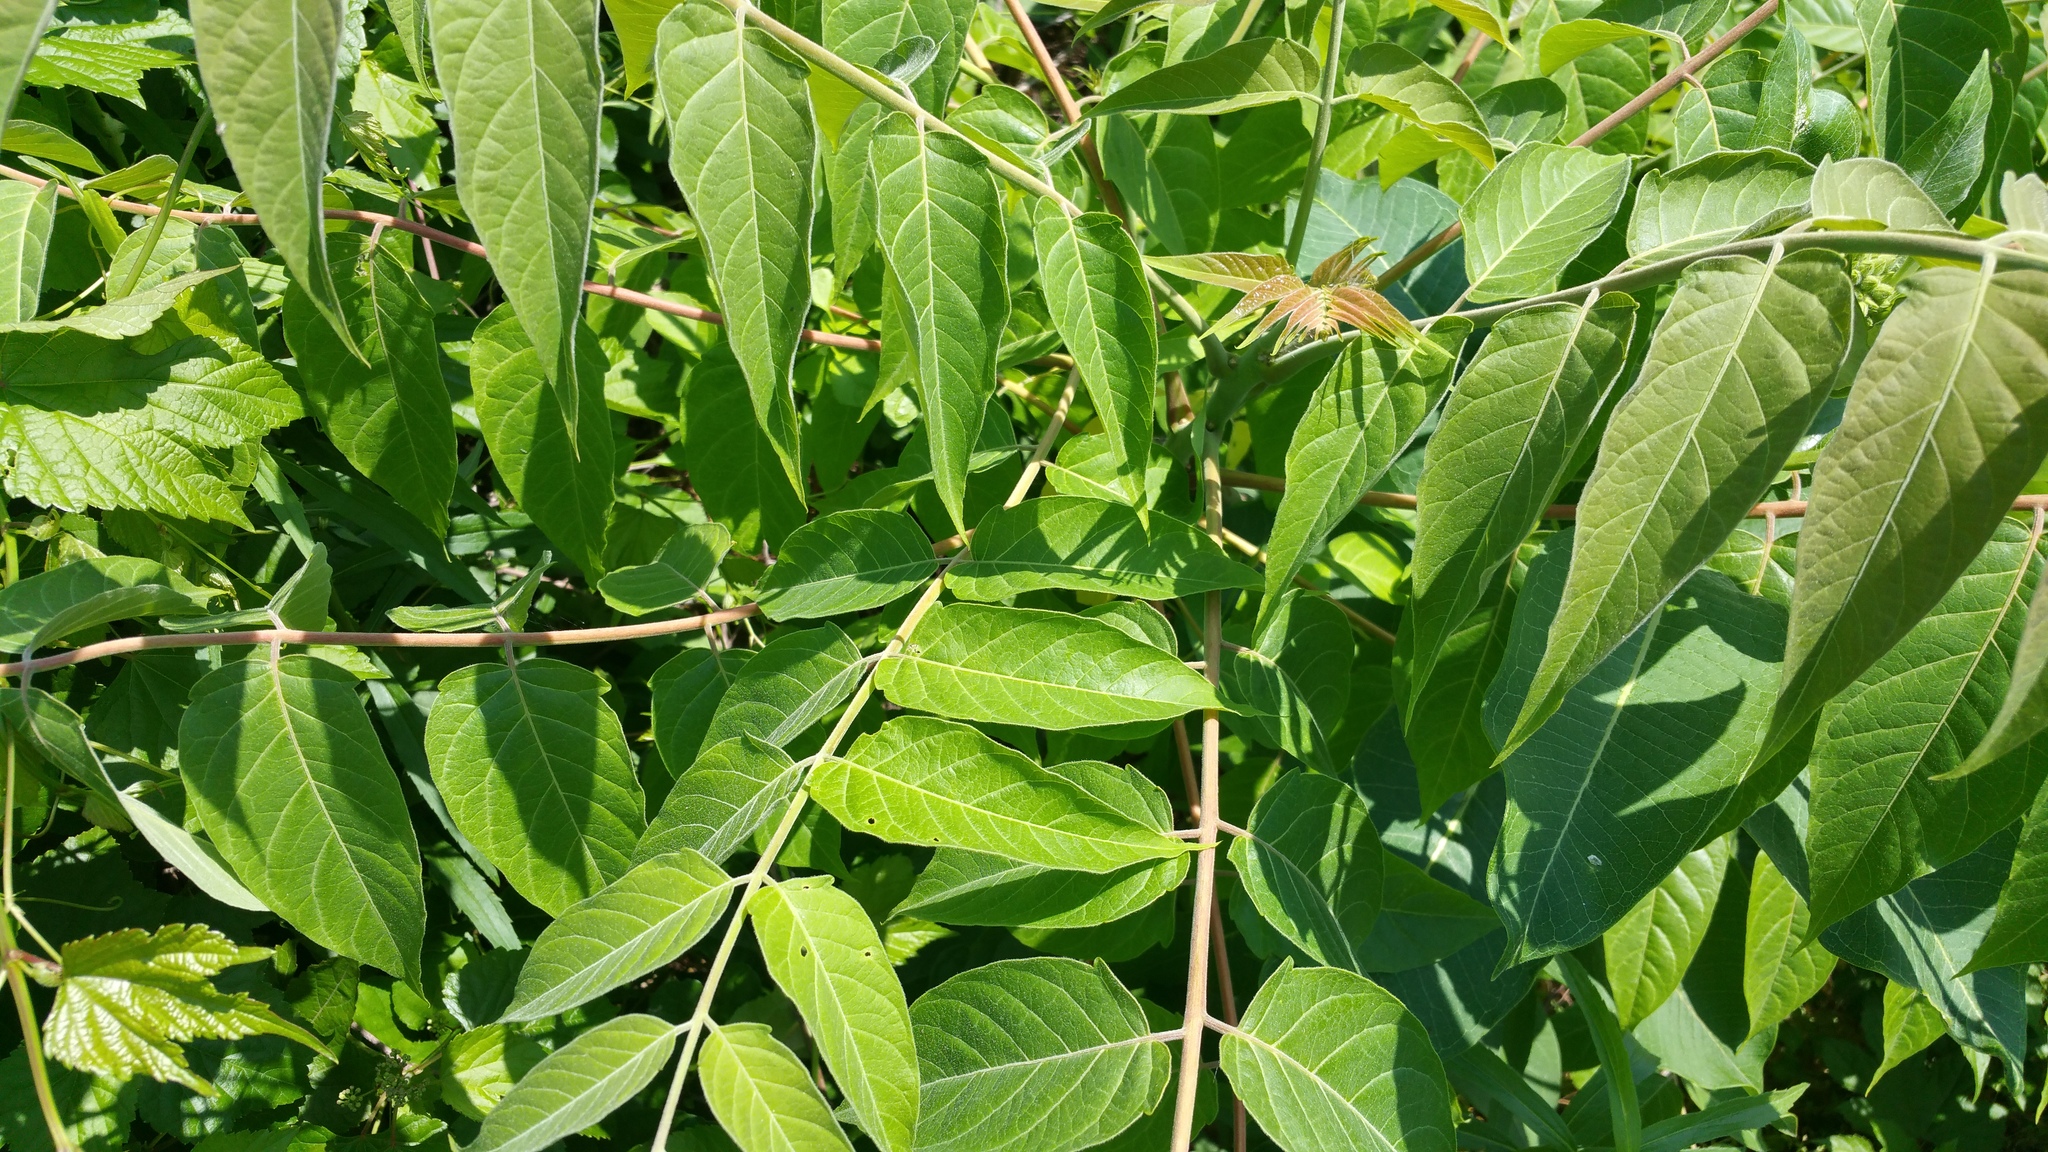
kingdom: Plantae
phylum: Tracheophyta
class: Magnoliopsida
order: Sapindales
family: Simaroubaceae
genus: Ailanthus
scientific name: Ailanthus altissima
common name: Tree-of-heaven
